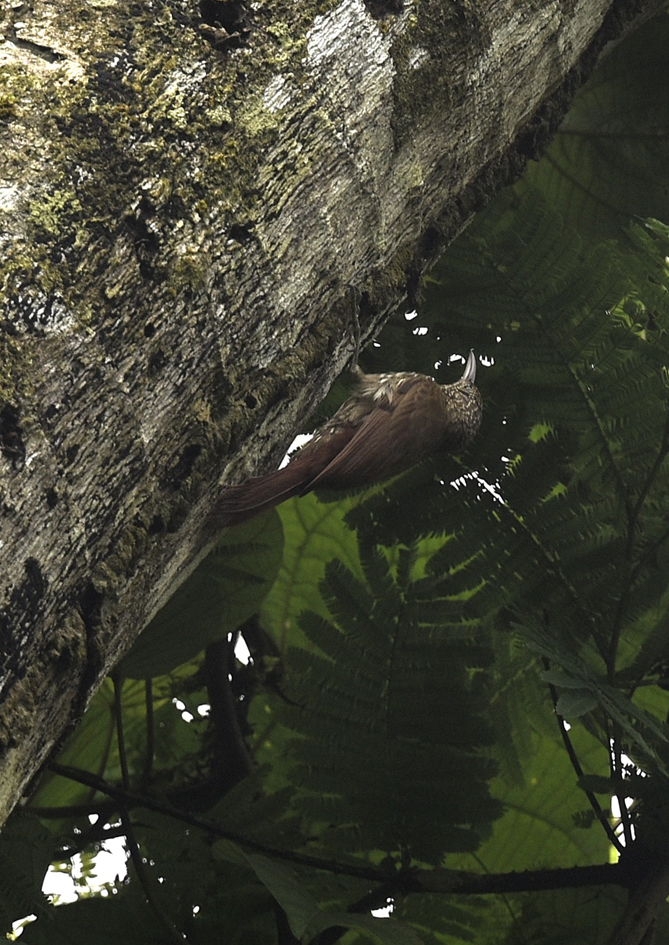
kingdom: Animalia
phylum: Chordata
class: Aves
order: Passeriformes
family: Furnariidae
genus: Lepidocolaptes
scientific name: Lepidocolaptes albolineatus
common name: Lineated woodcreeper
